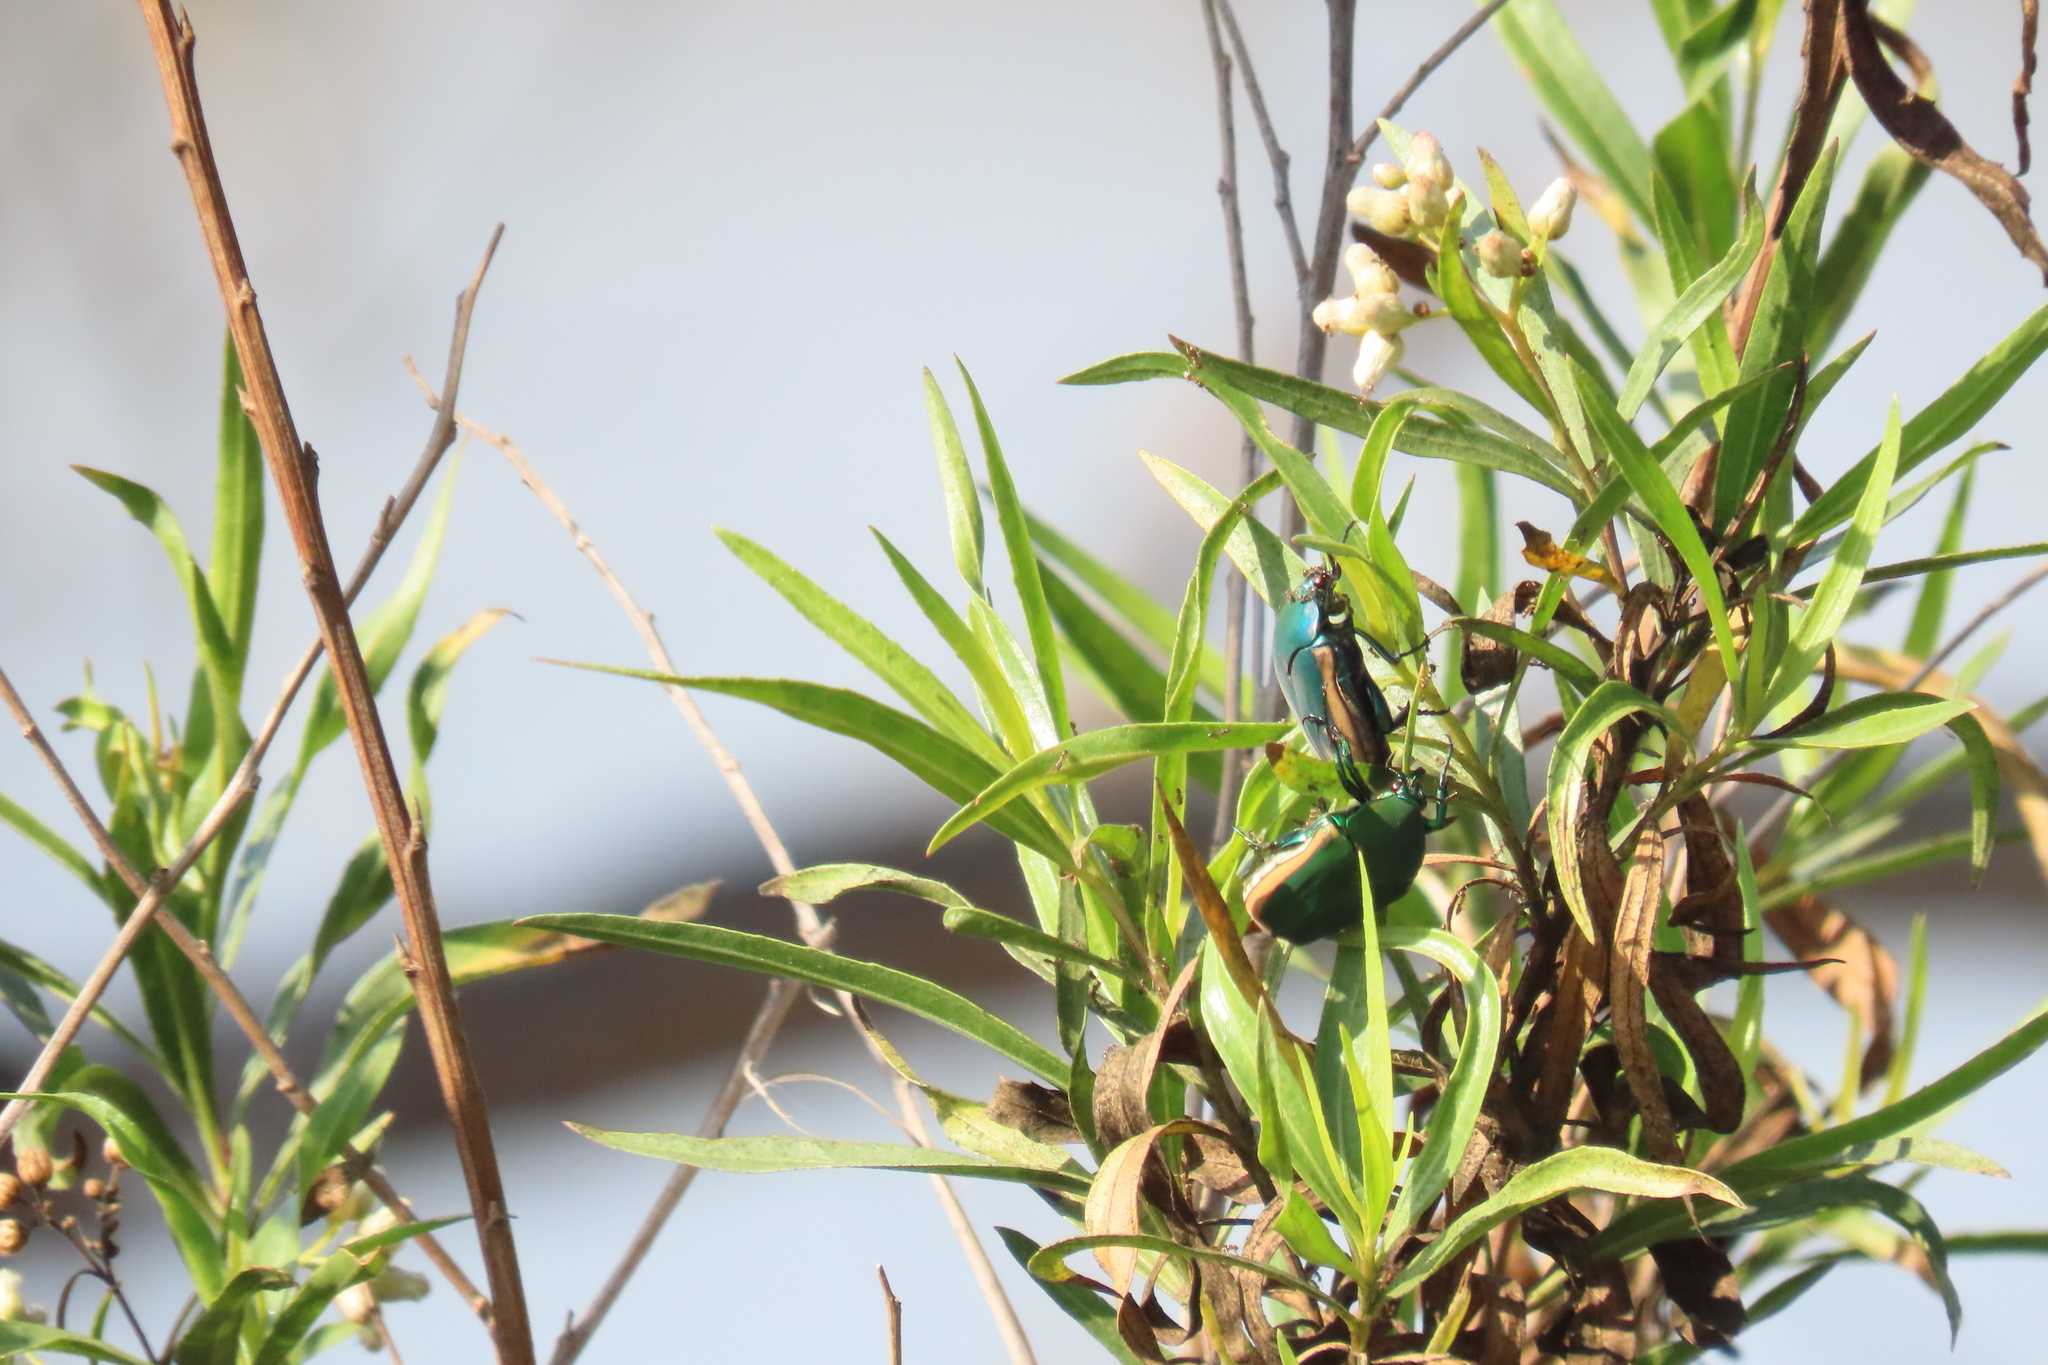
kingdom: Animalia
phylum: Arthropoda
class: Insecta
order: Coleoptera
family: Scarabaeidae
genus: Cotinis
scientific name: Cotinis mutabilis
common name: Figeater beetle
